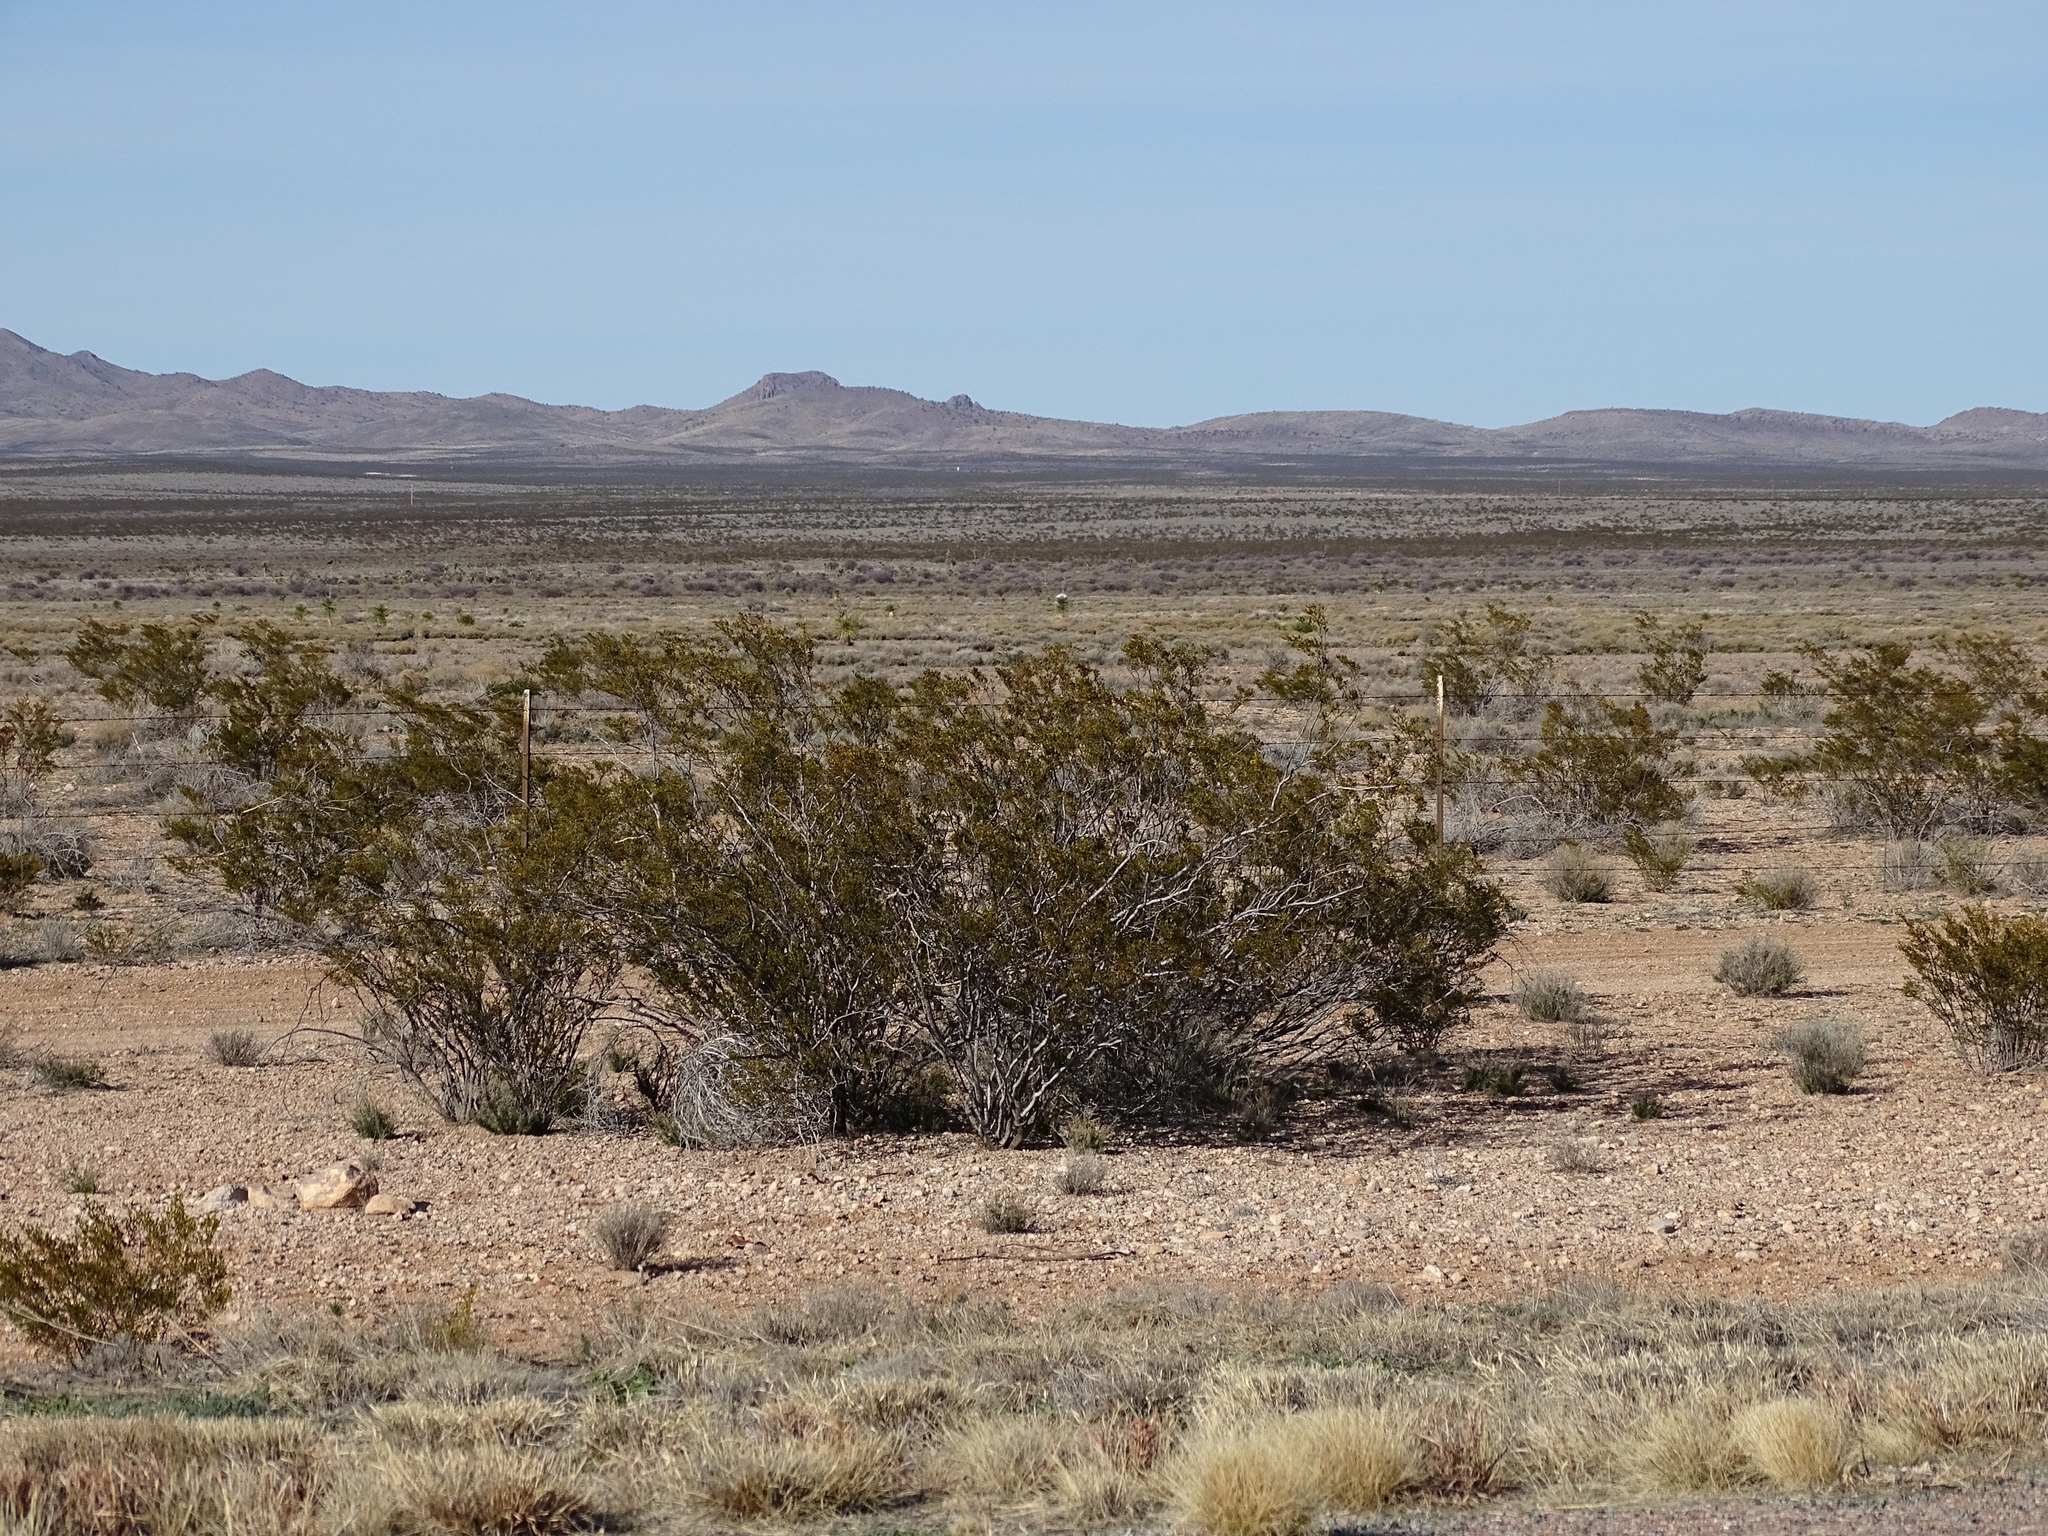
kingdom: Plantae
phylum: Tracheophyta
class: Magnoliopsida
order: Zygophyllales
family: Zygophyllaceae
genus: Larrea
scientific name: Larrea tridentata
